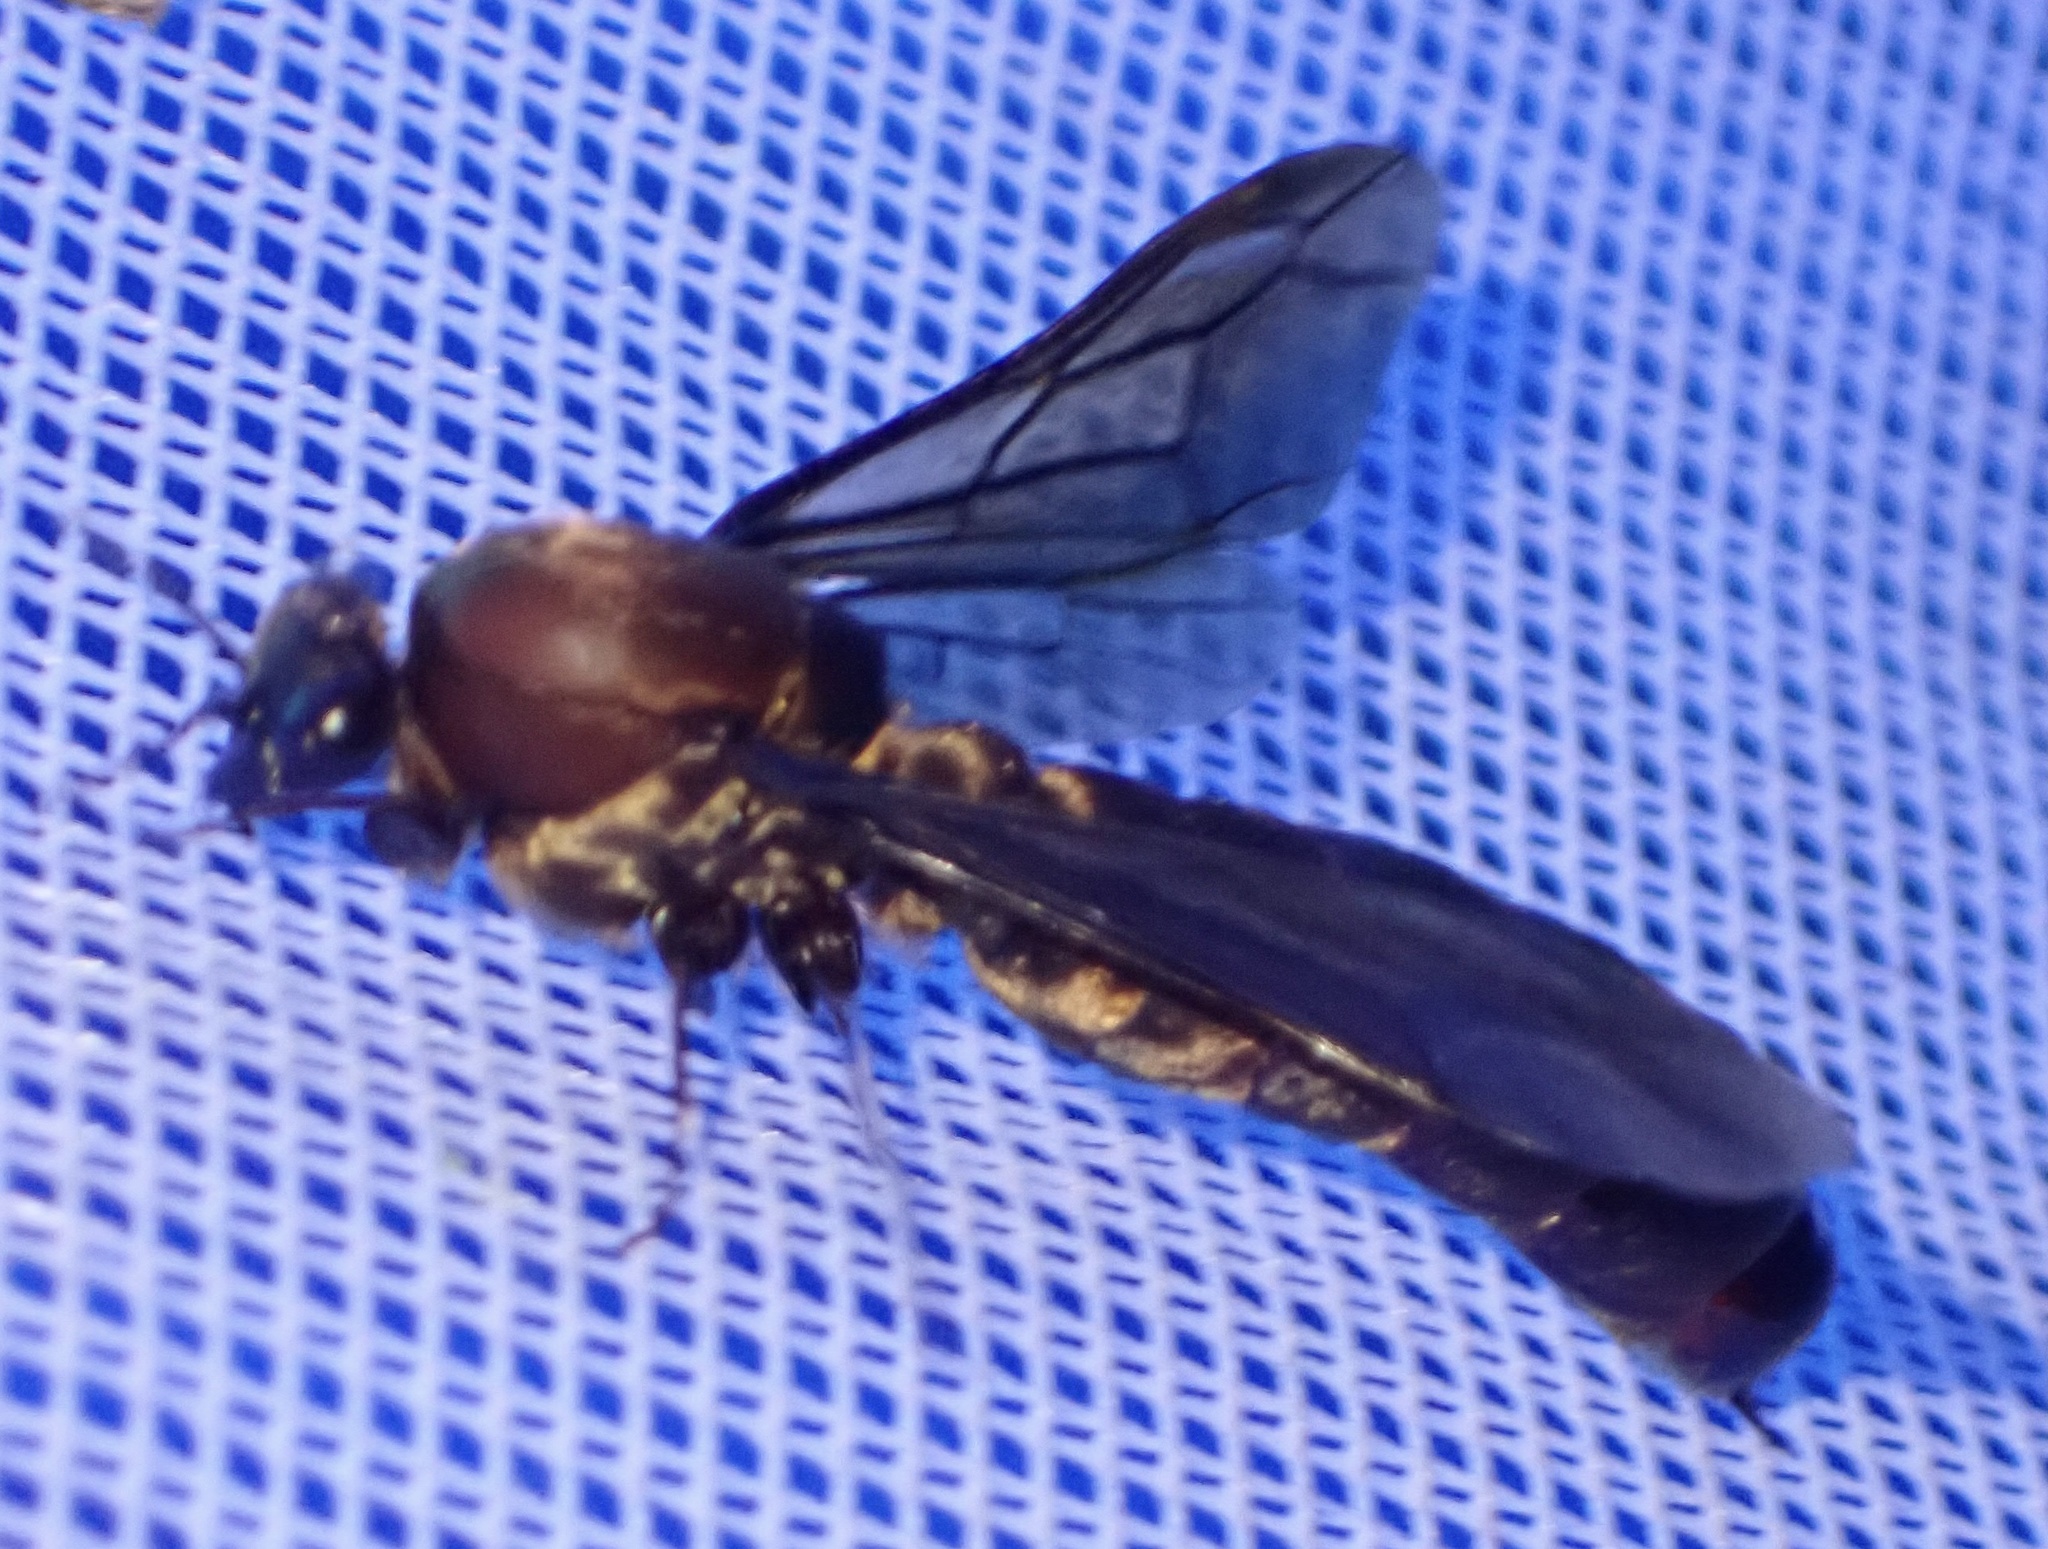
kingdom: Animalia
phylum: Arthropoda
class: Insecta
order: Hymenoptera
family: Formicidae
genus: Dorylus
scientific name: Dorylus
